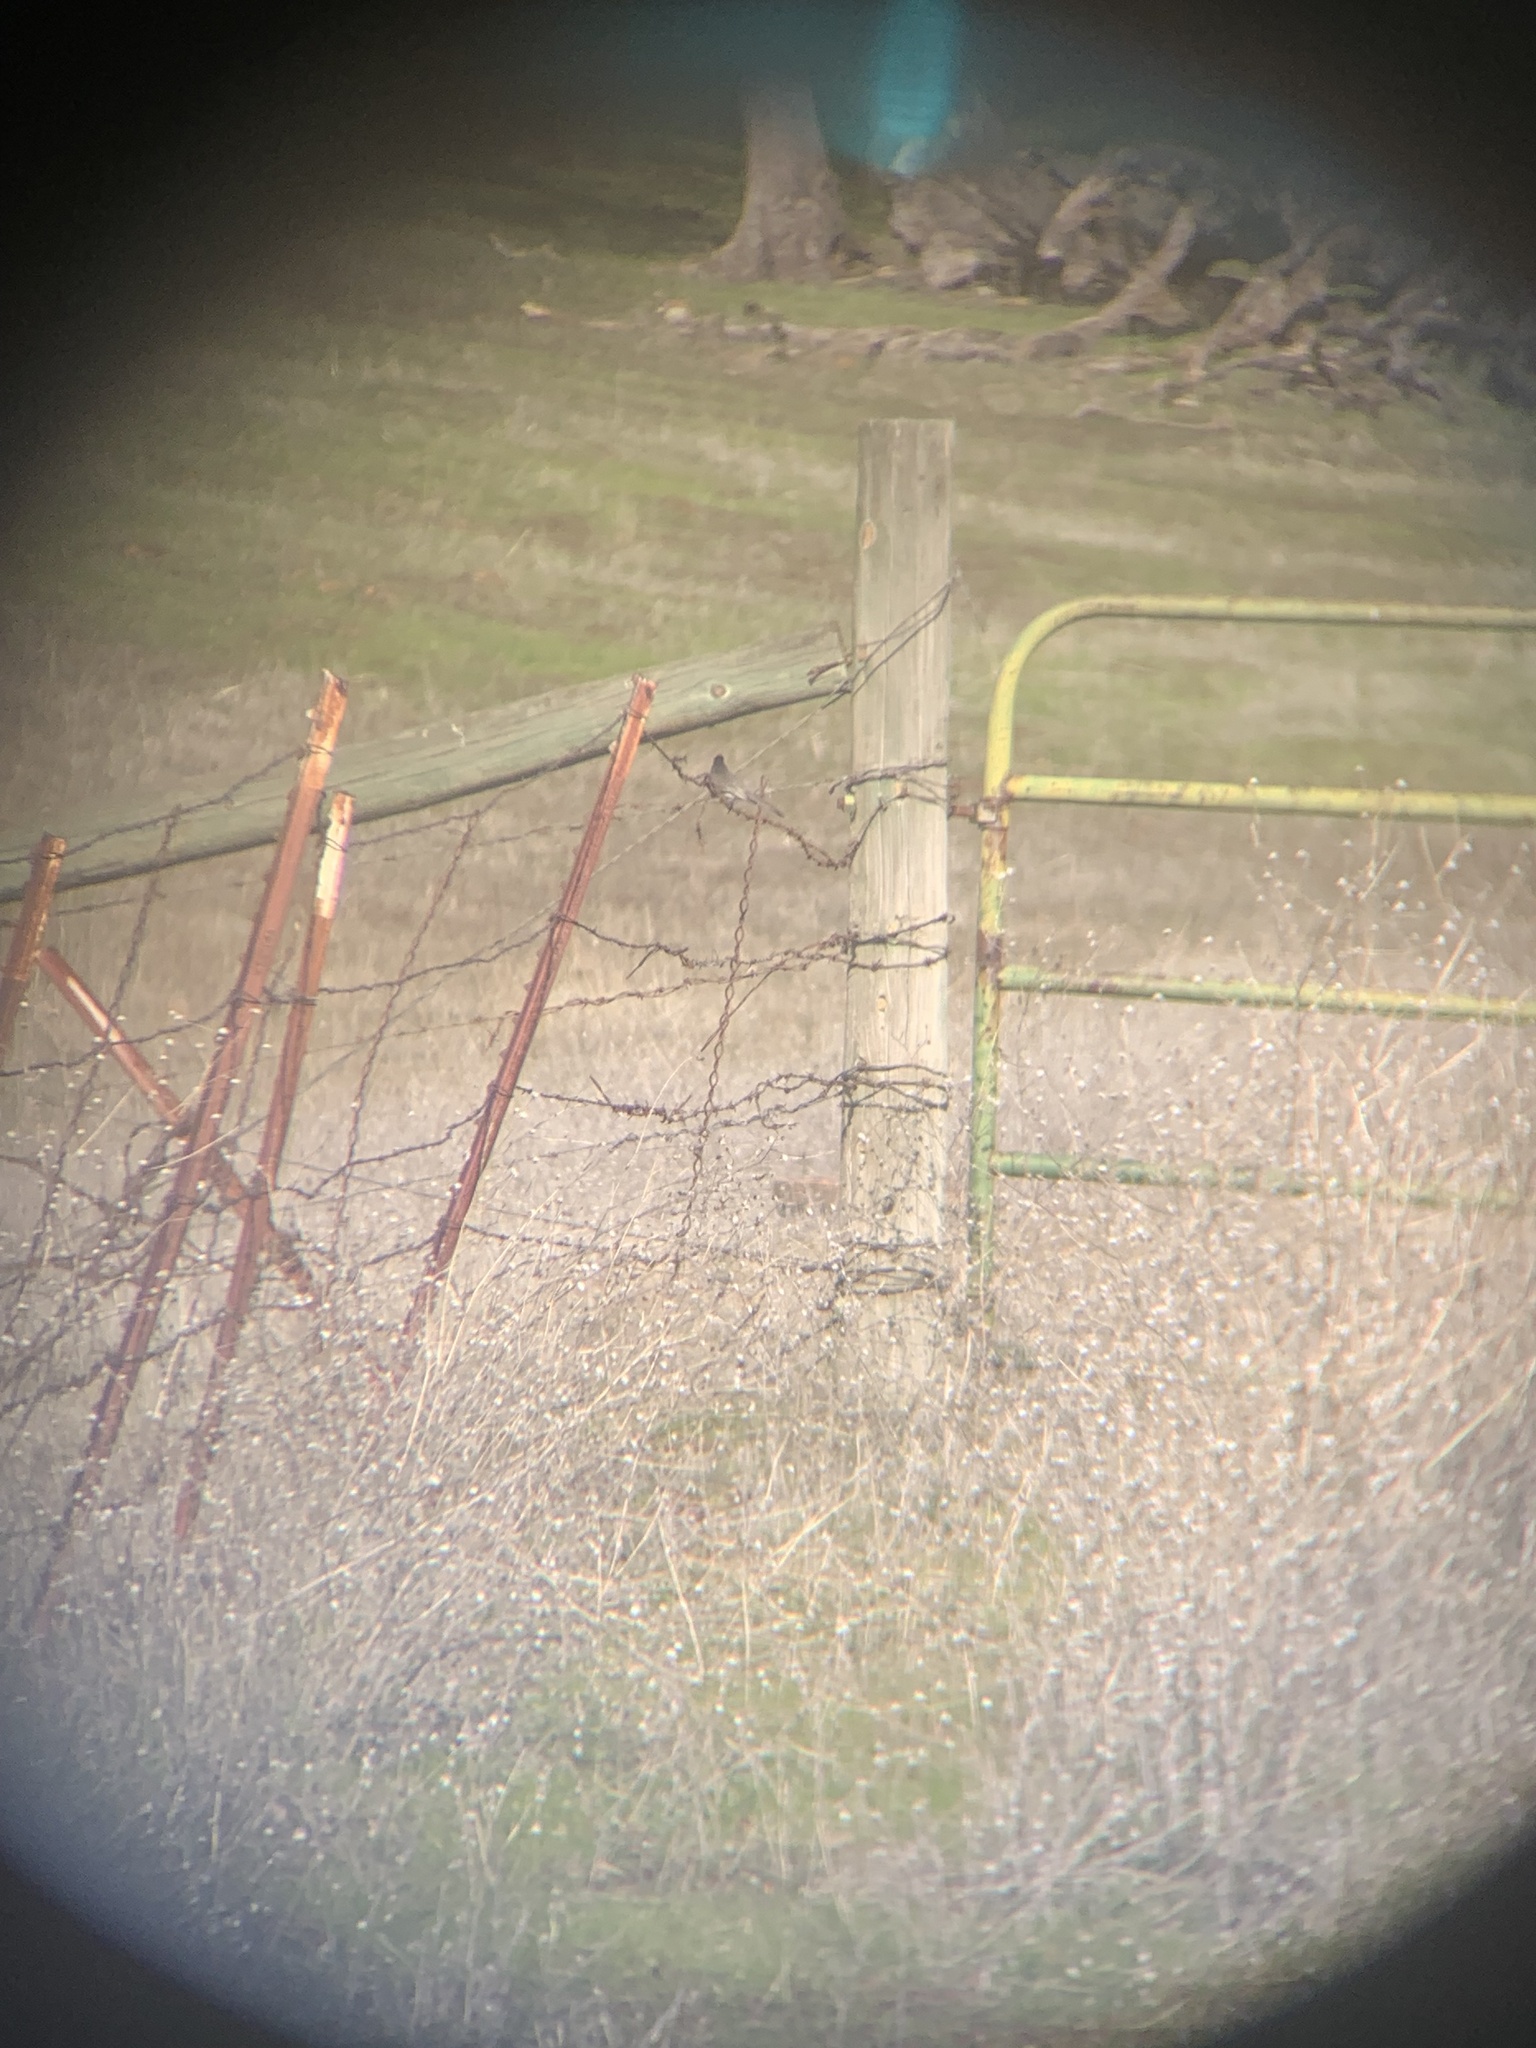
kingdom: Animalia
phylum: Chordata
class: Aves
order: Passeriformes
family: Tyrannidae
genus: Sayornis
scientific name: Sayornis nigricans
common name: Black phoebe
